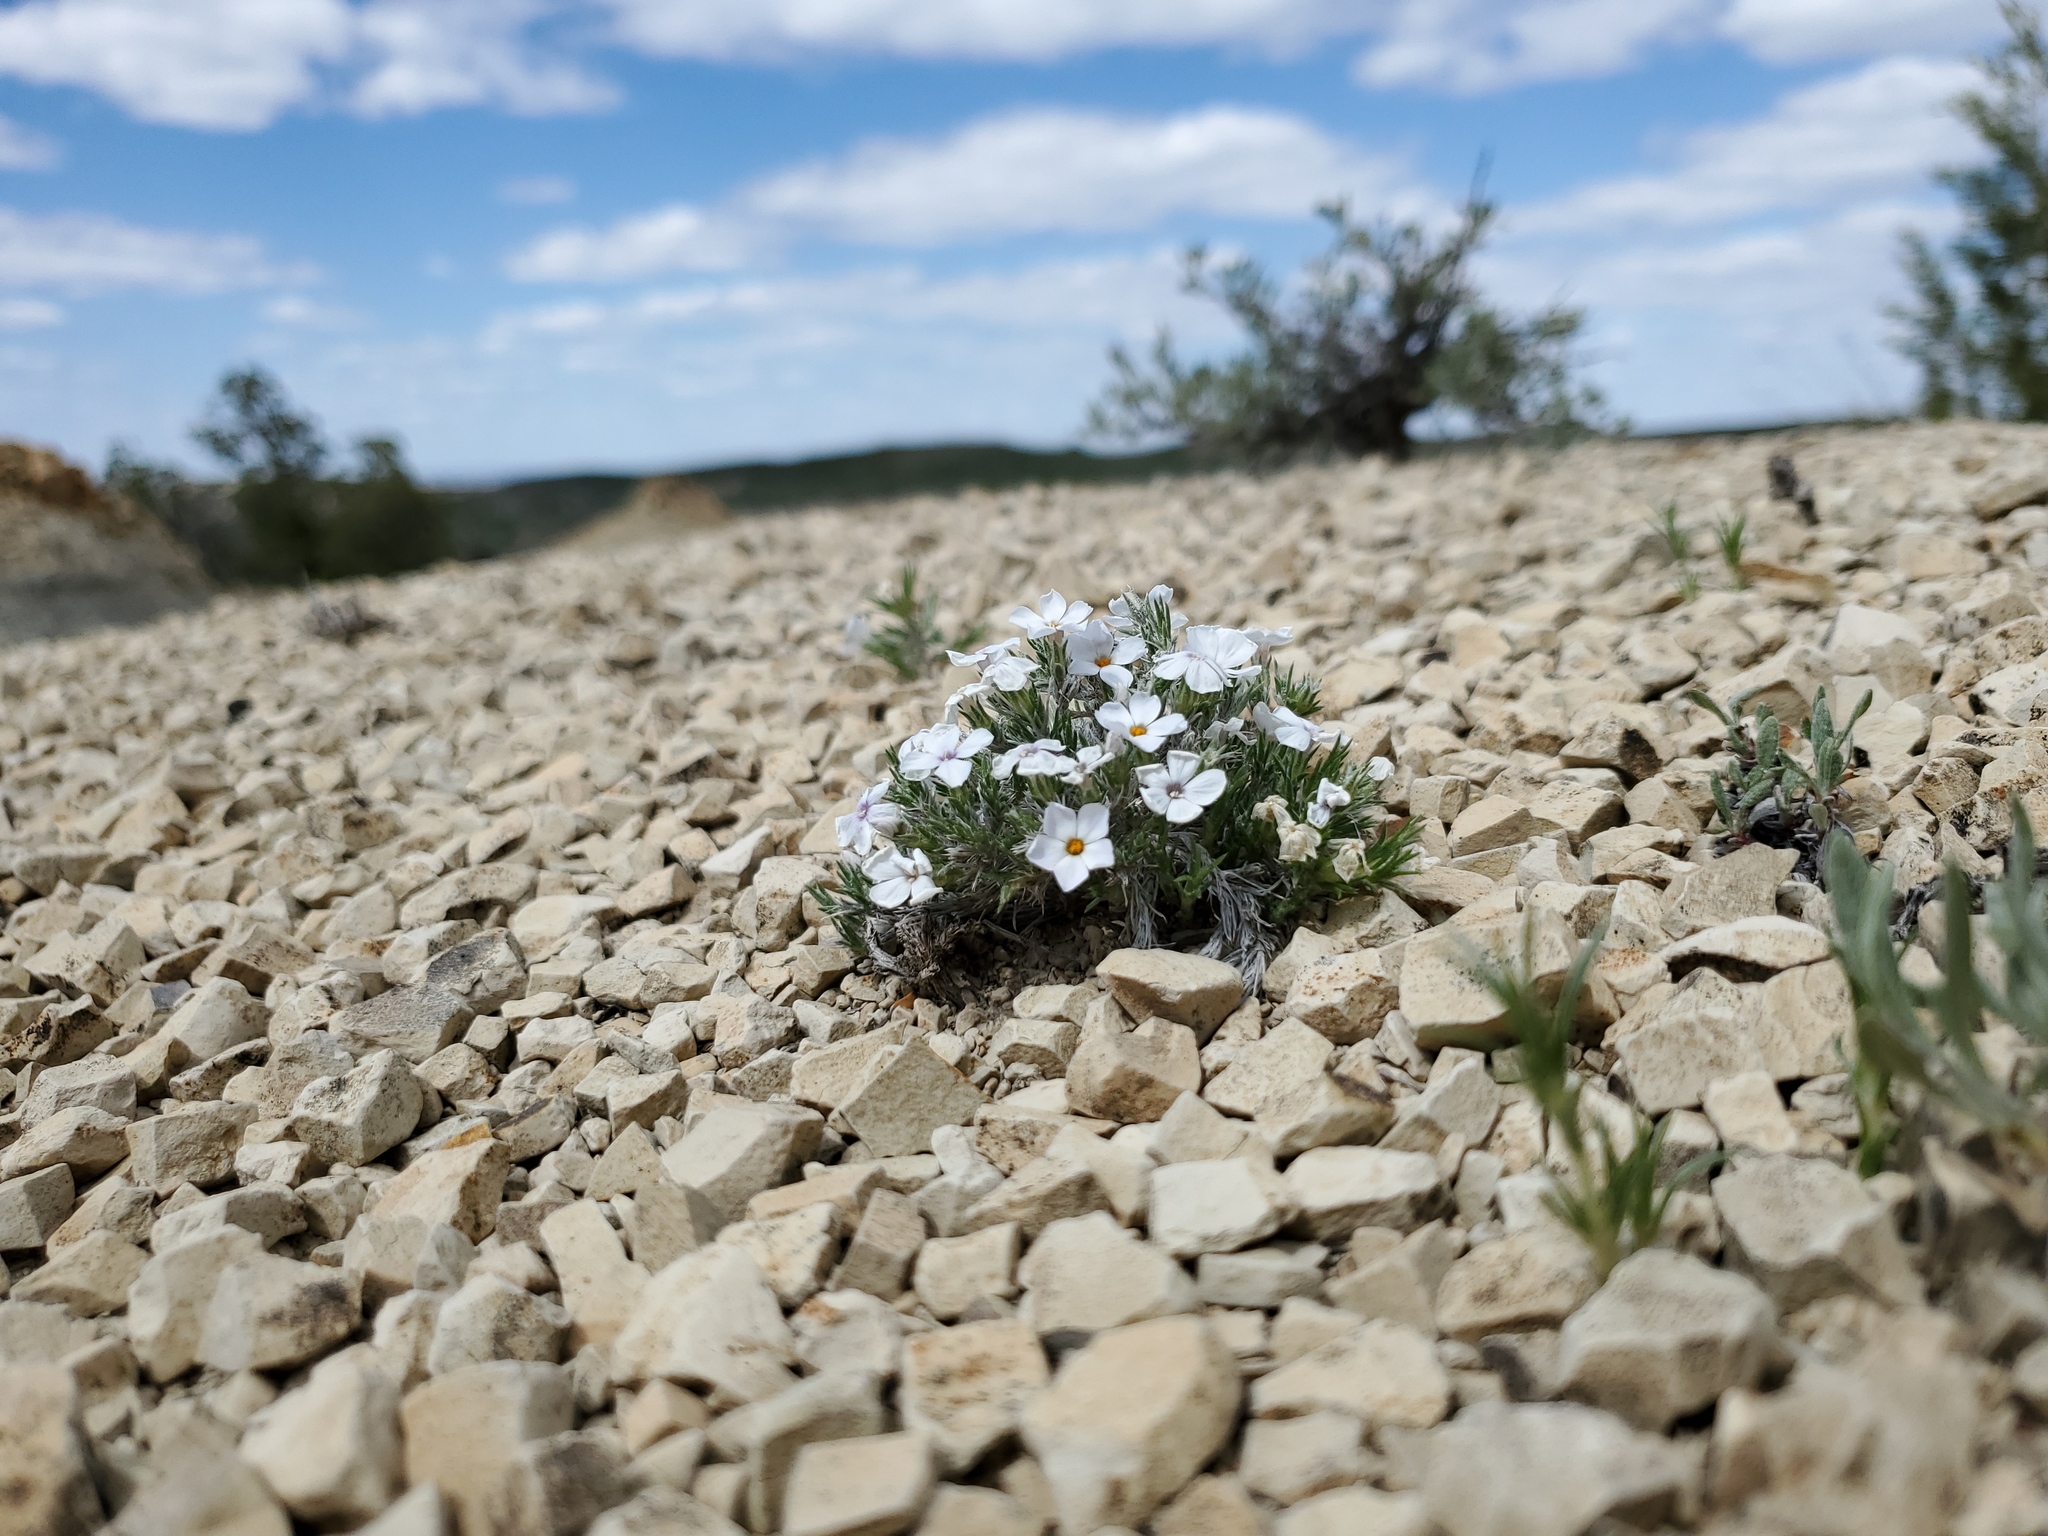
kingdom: Plantae
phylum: Tracheophyta
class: Magnoliopsida
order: Ericales
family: Polemoniaceae
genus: Phlox
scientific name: Phlox hoodii
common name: Moss phlox
